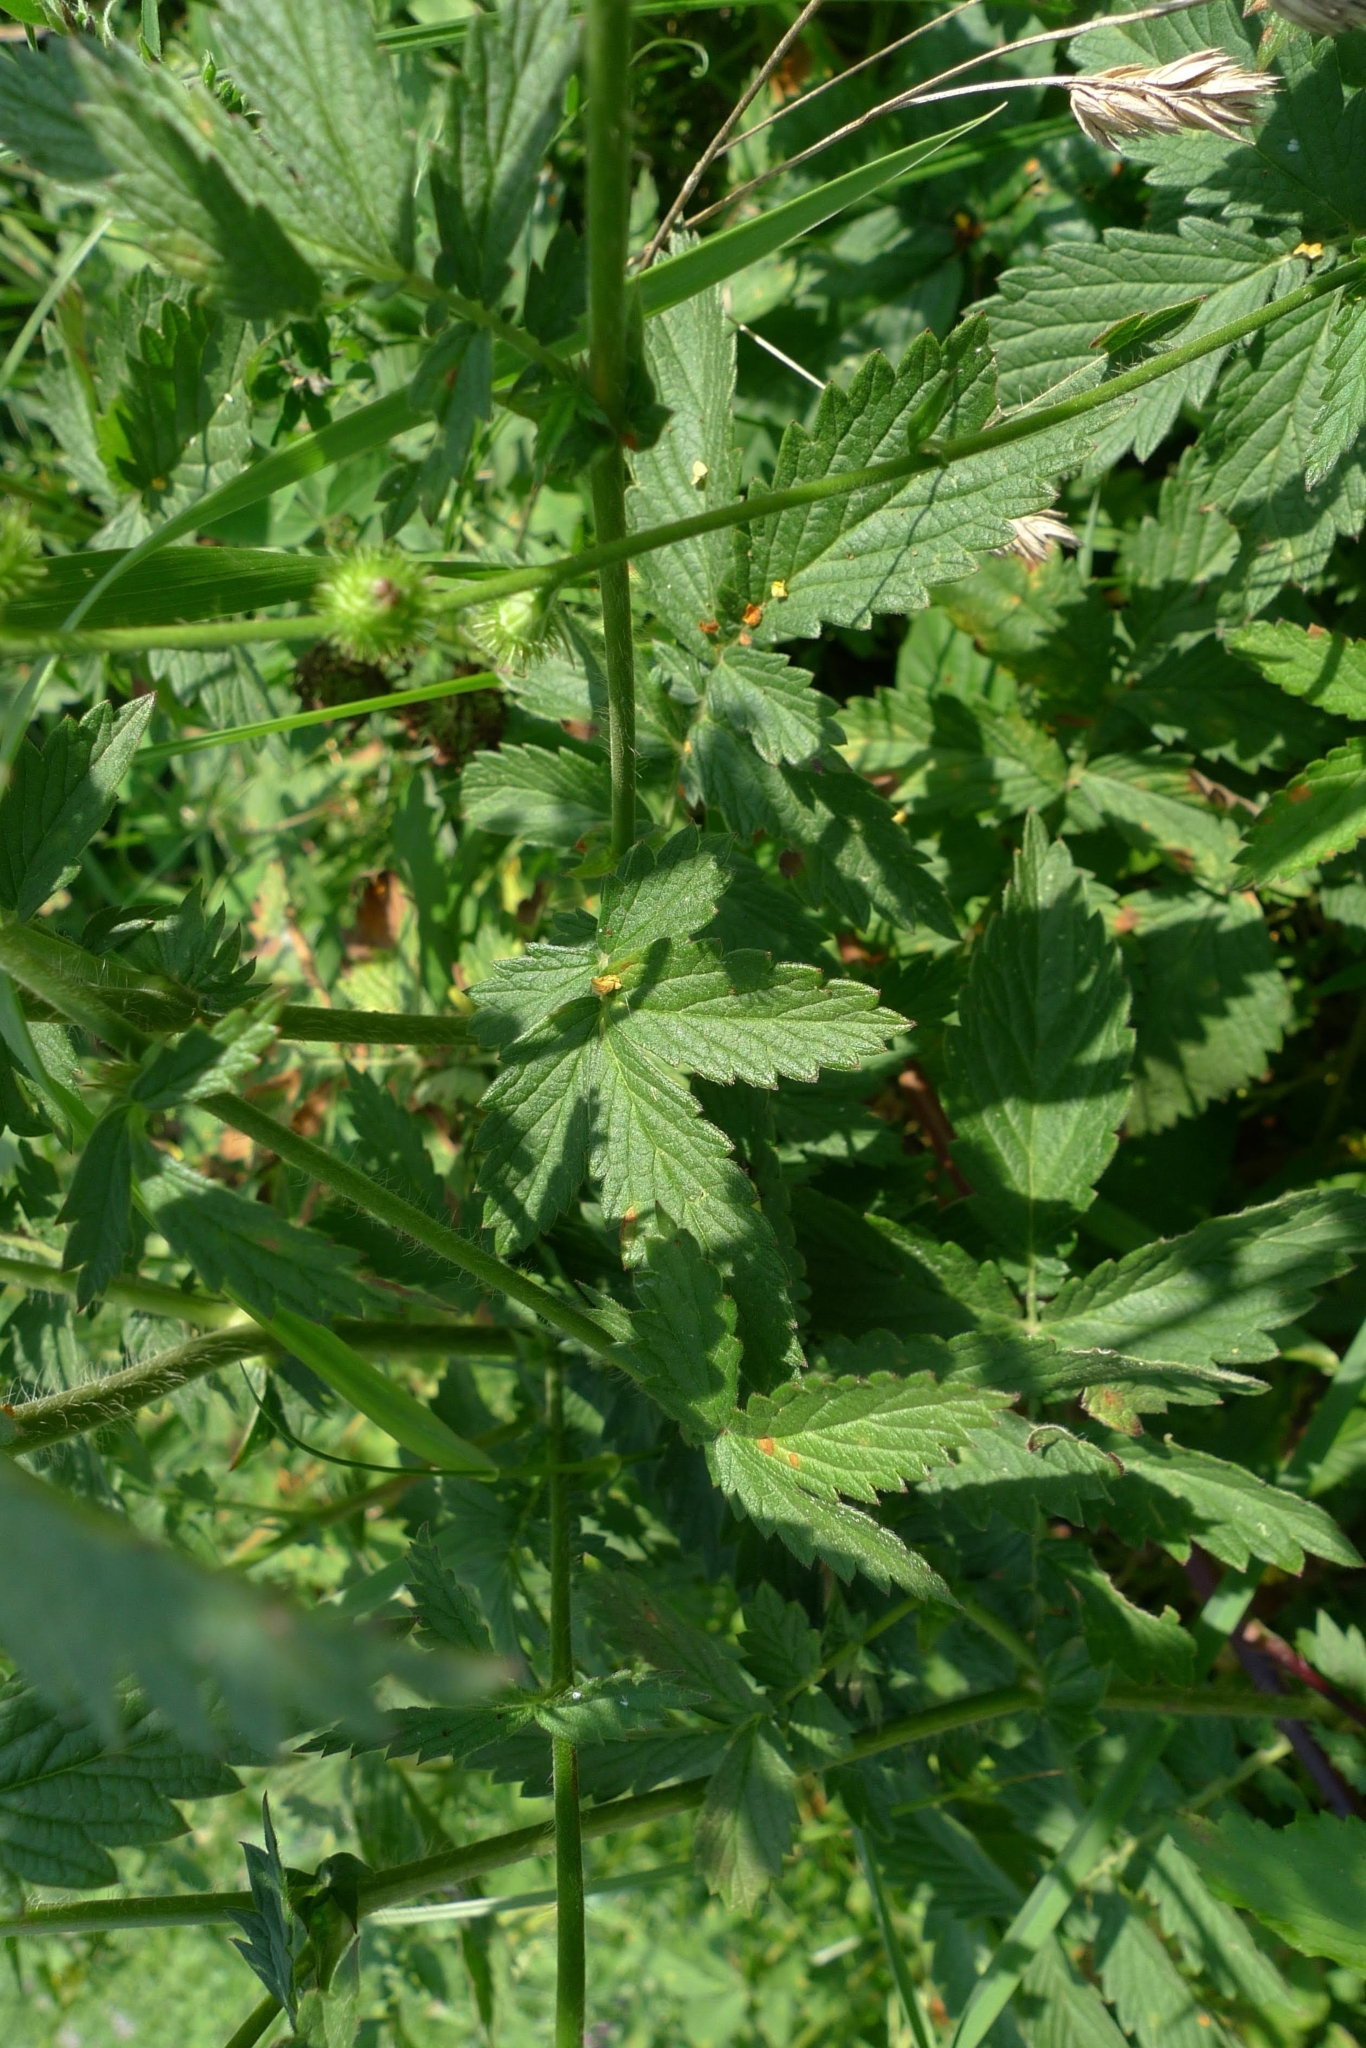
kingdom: Plantae
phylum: Tracheophyta
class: Magnoliopsida
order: Rosales
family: Rosaceae
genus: Agrimonia
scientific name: Agrimonia eupatoria
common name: Agrimony
